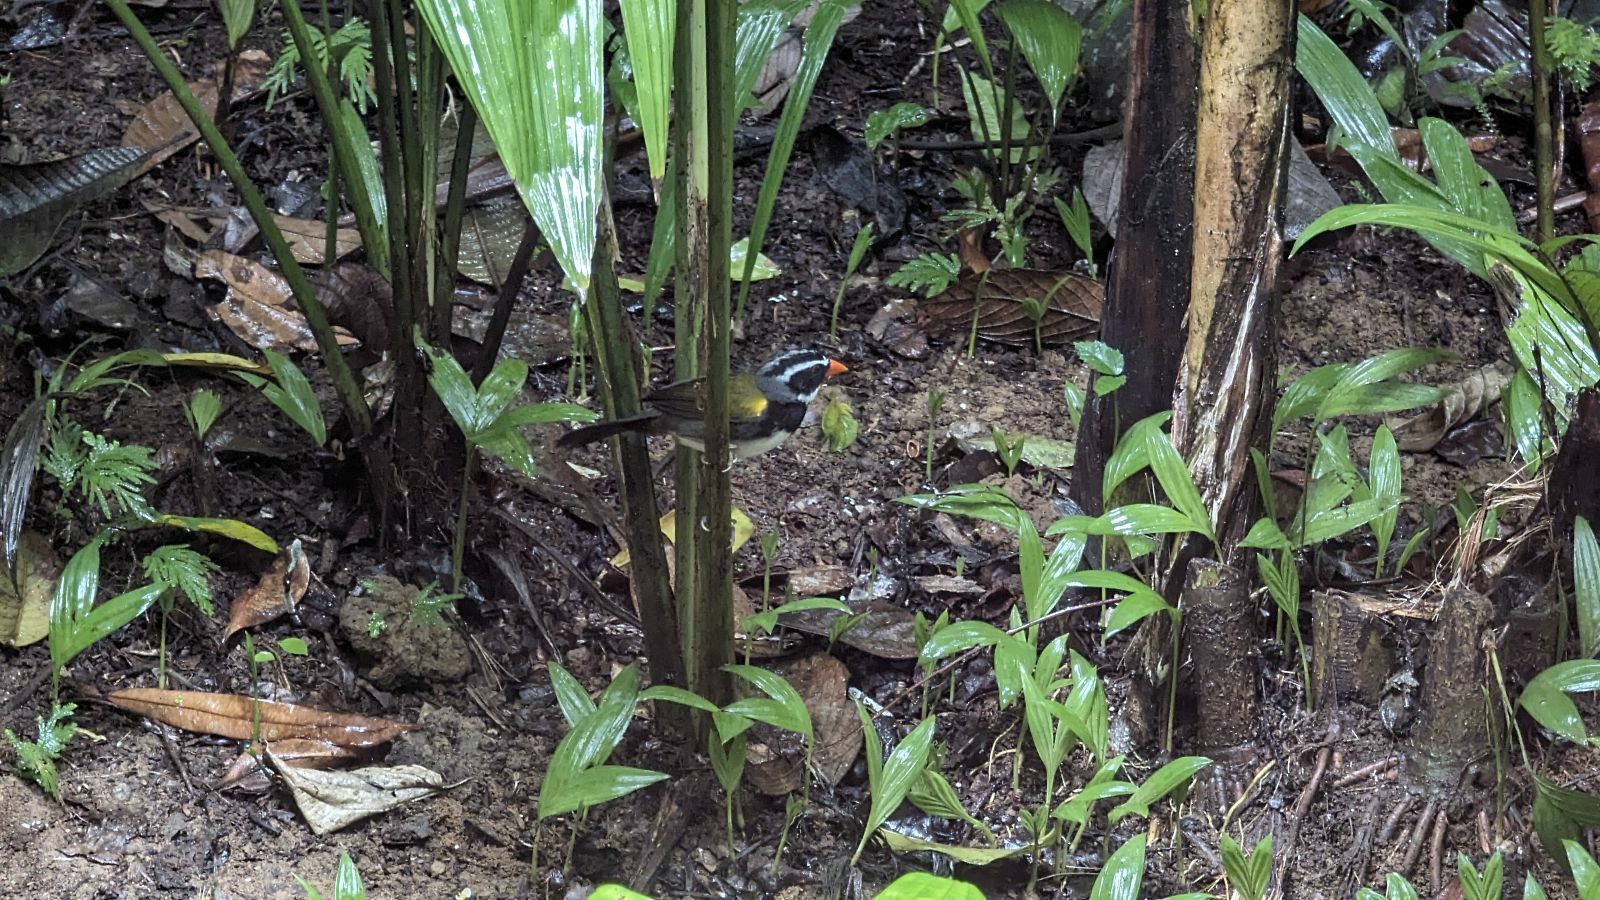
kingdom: Animalia
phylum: Chordata
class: Aves
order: Passeriformes
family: Passerellidae
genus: Arremon
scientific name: Arremon aurantiirostris
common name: Orange-billed sparrow
